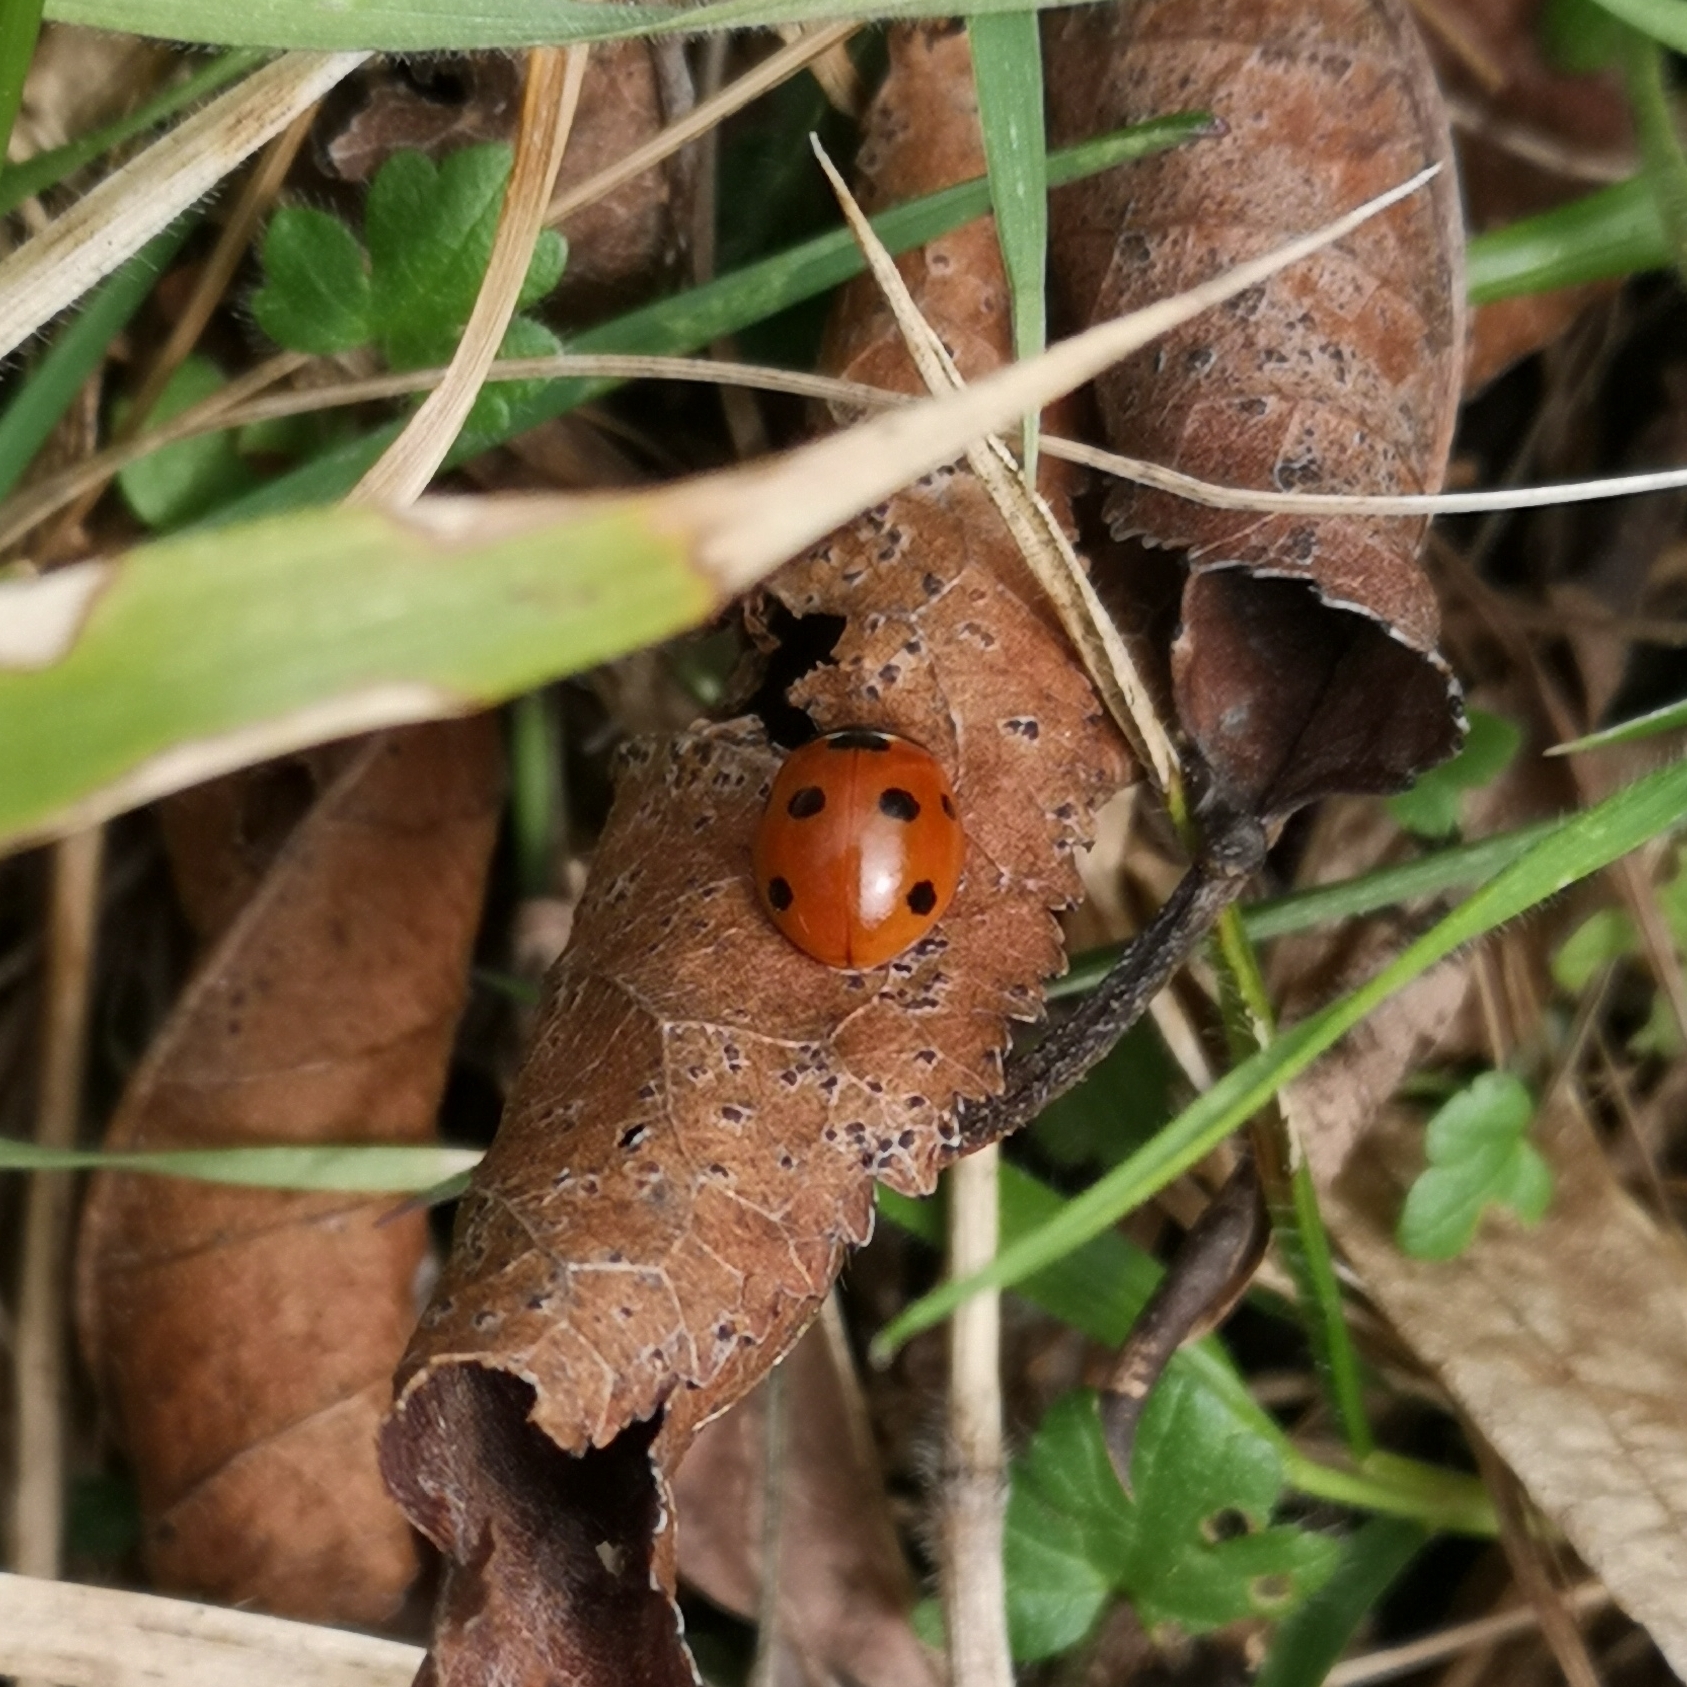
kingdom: Animalia
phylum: Arthropoda
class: Insecta
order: Coleoptera
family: Coccinellidae
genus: Coccinella
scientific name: Coccinella septempunctata
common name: Sevenspotted lady beetle
